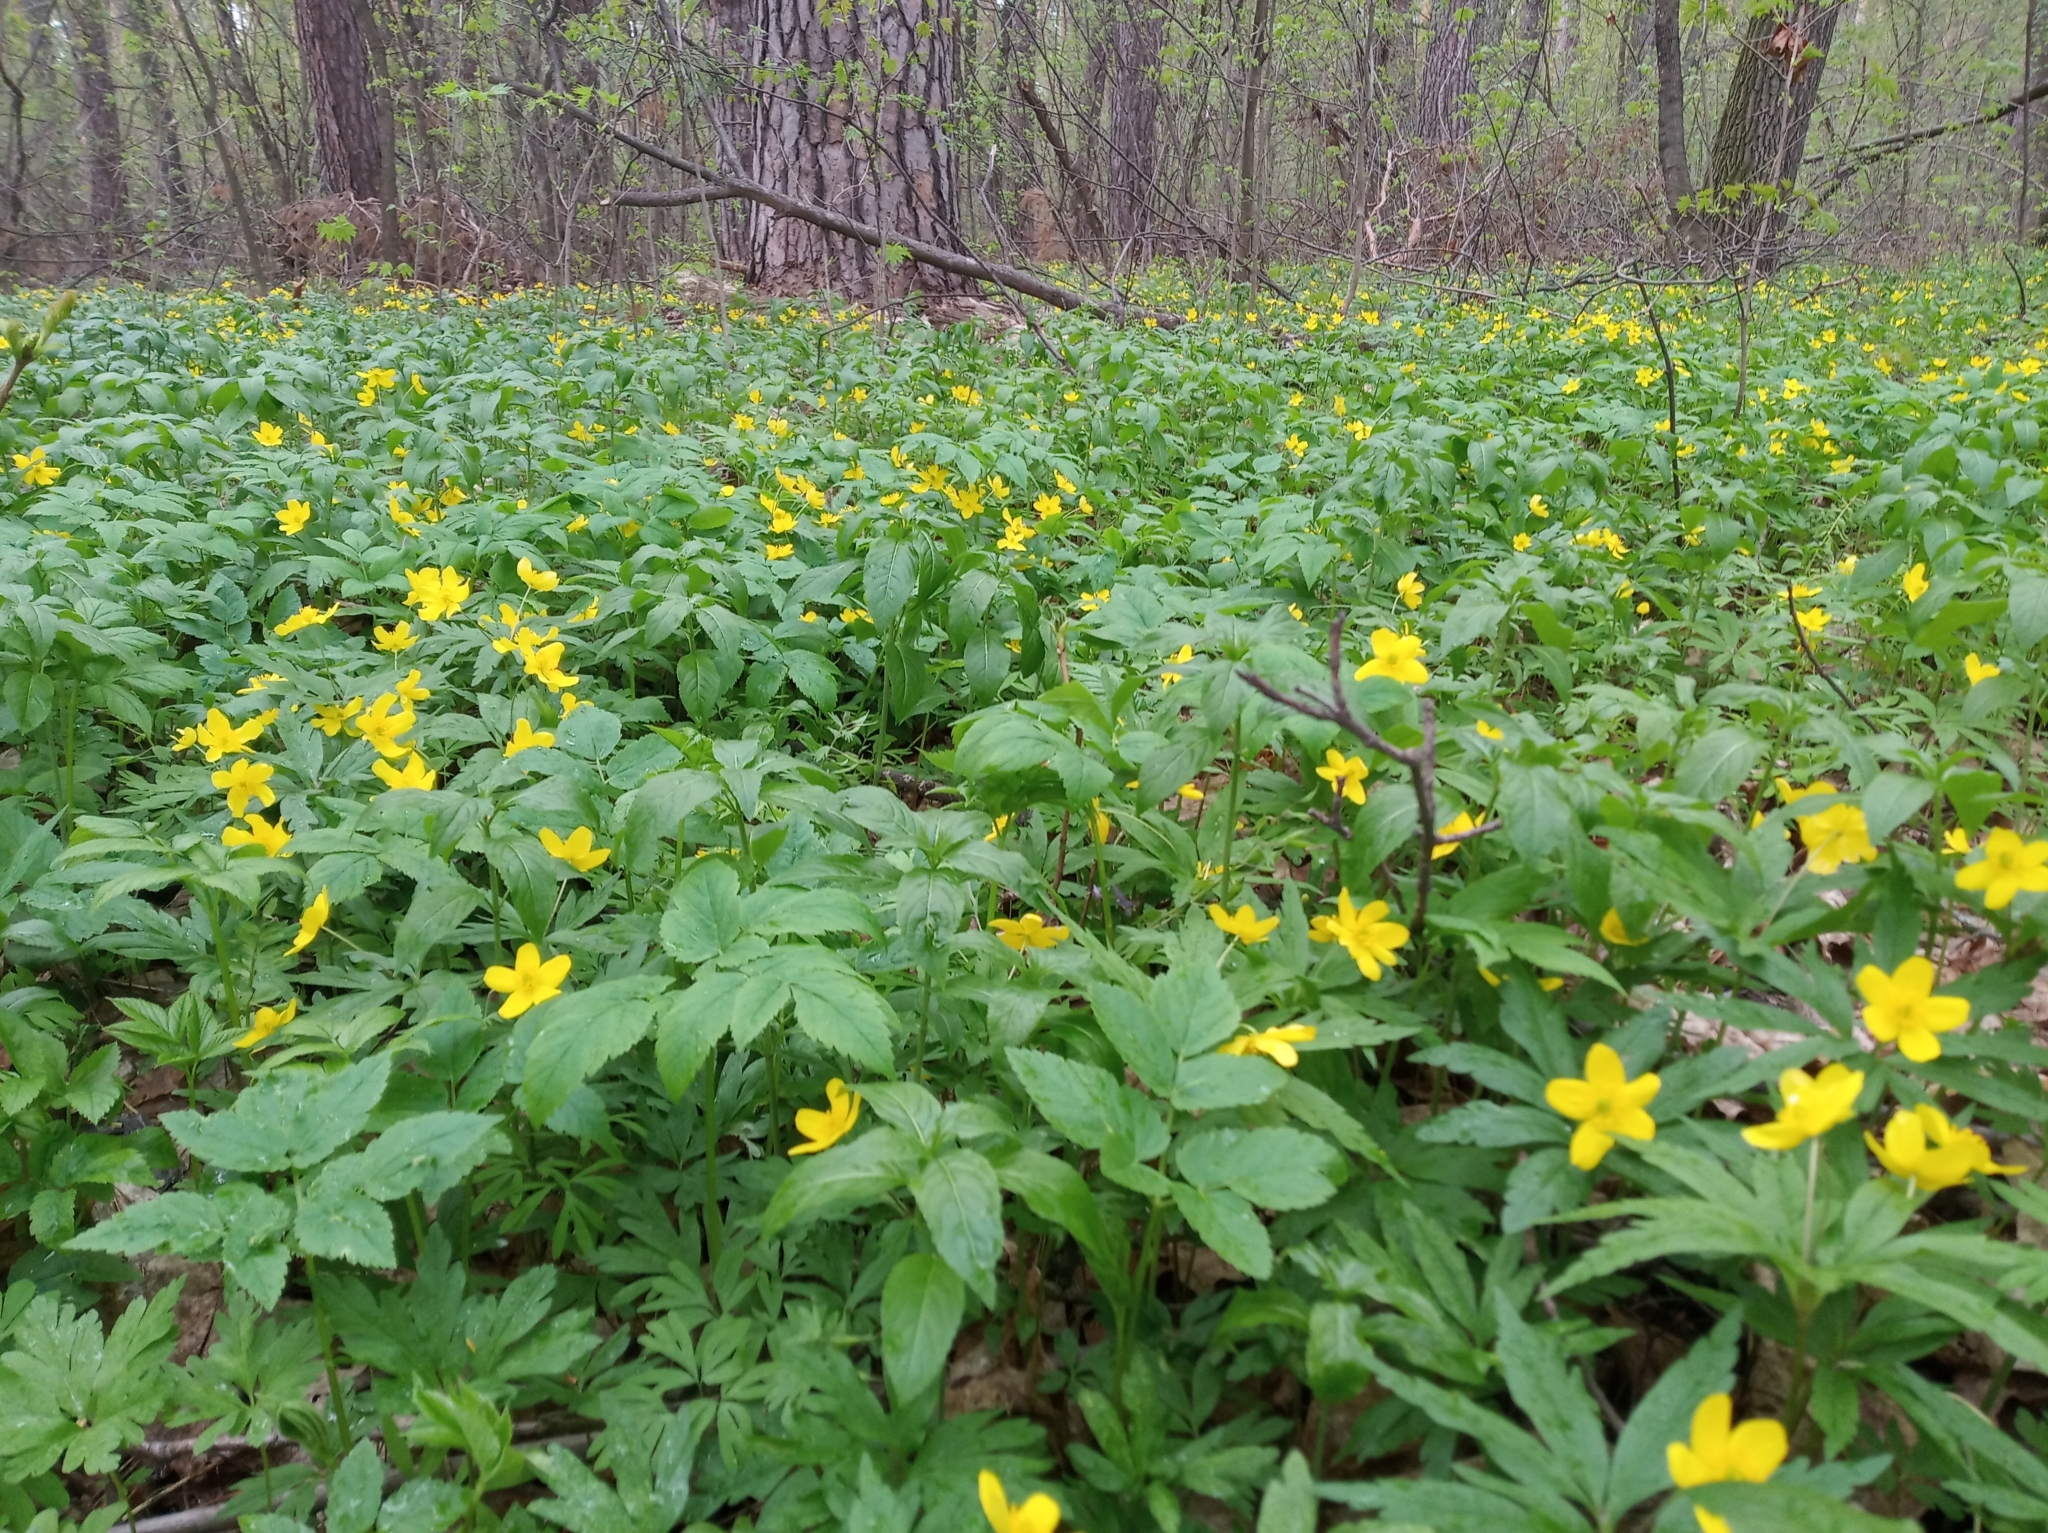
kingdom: Plantae
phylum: Tracheophyta
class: Magnoliopsida
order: Ranunculales
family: Ranunculaceae
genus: Anemone
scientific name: Anemone ranunculoides
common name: Yellow anemone
